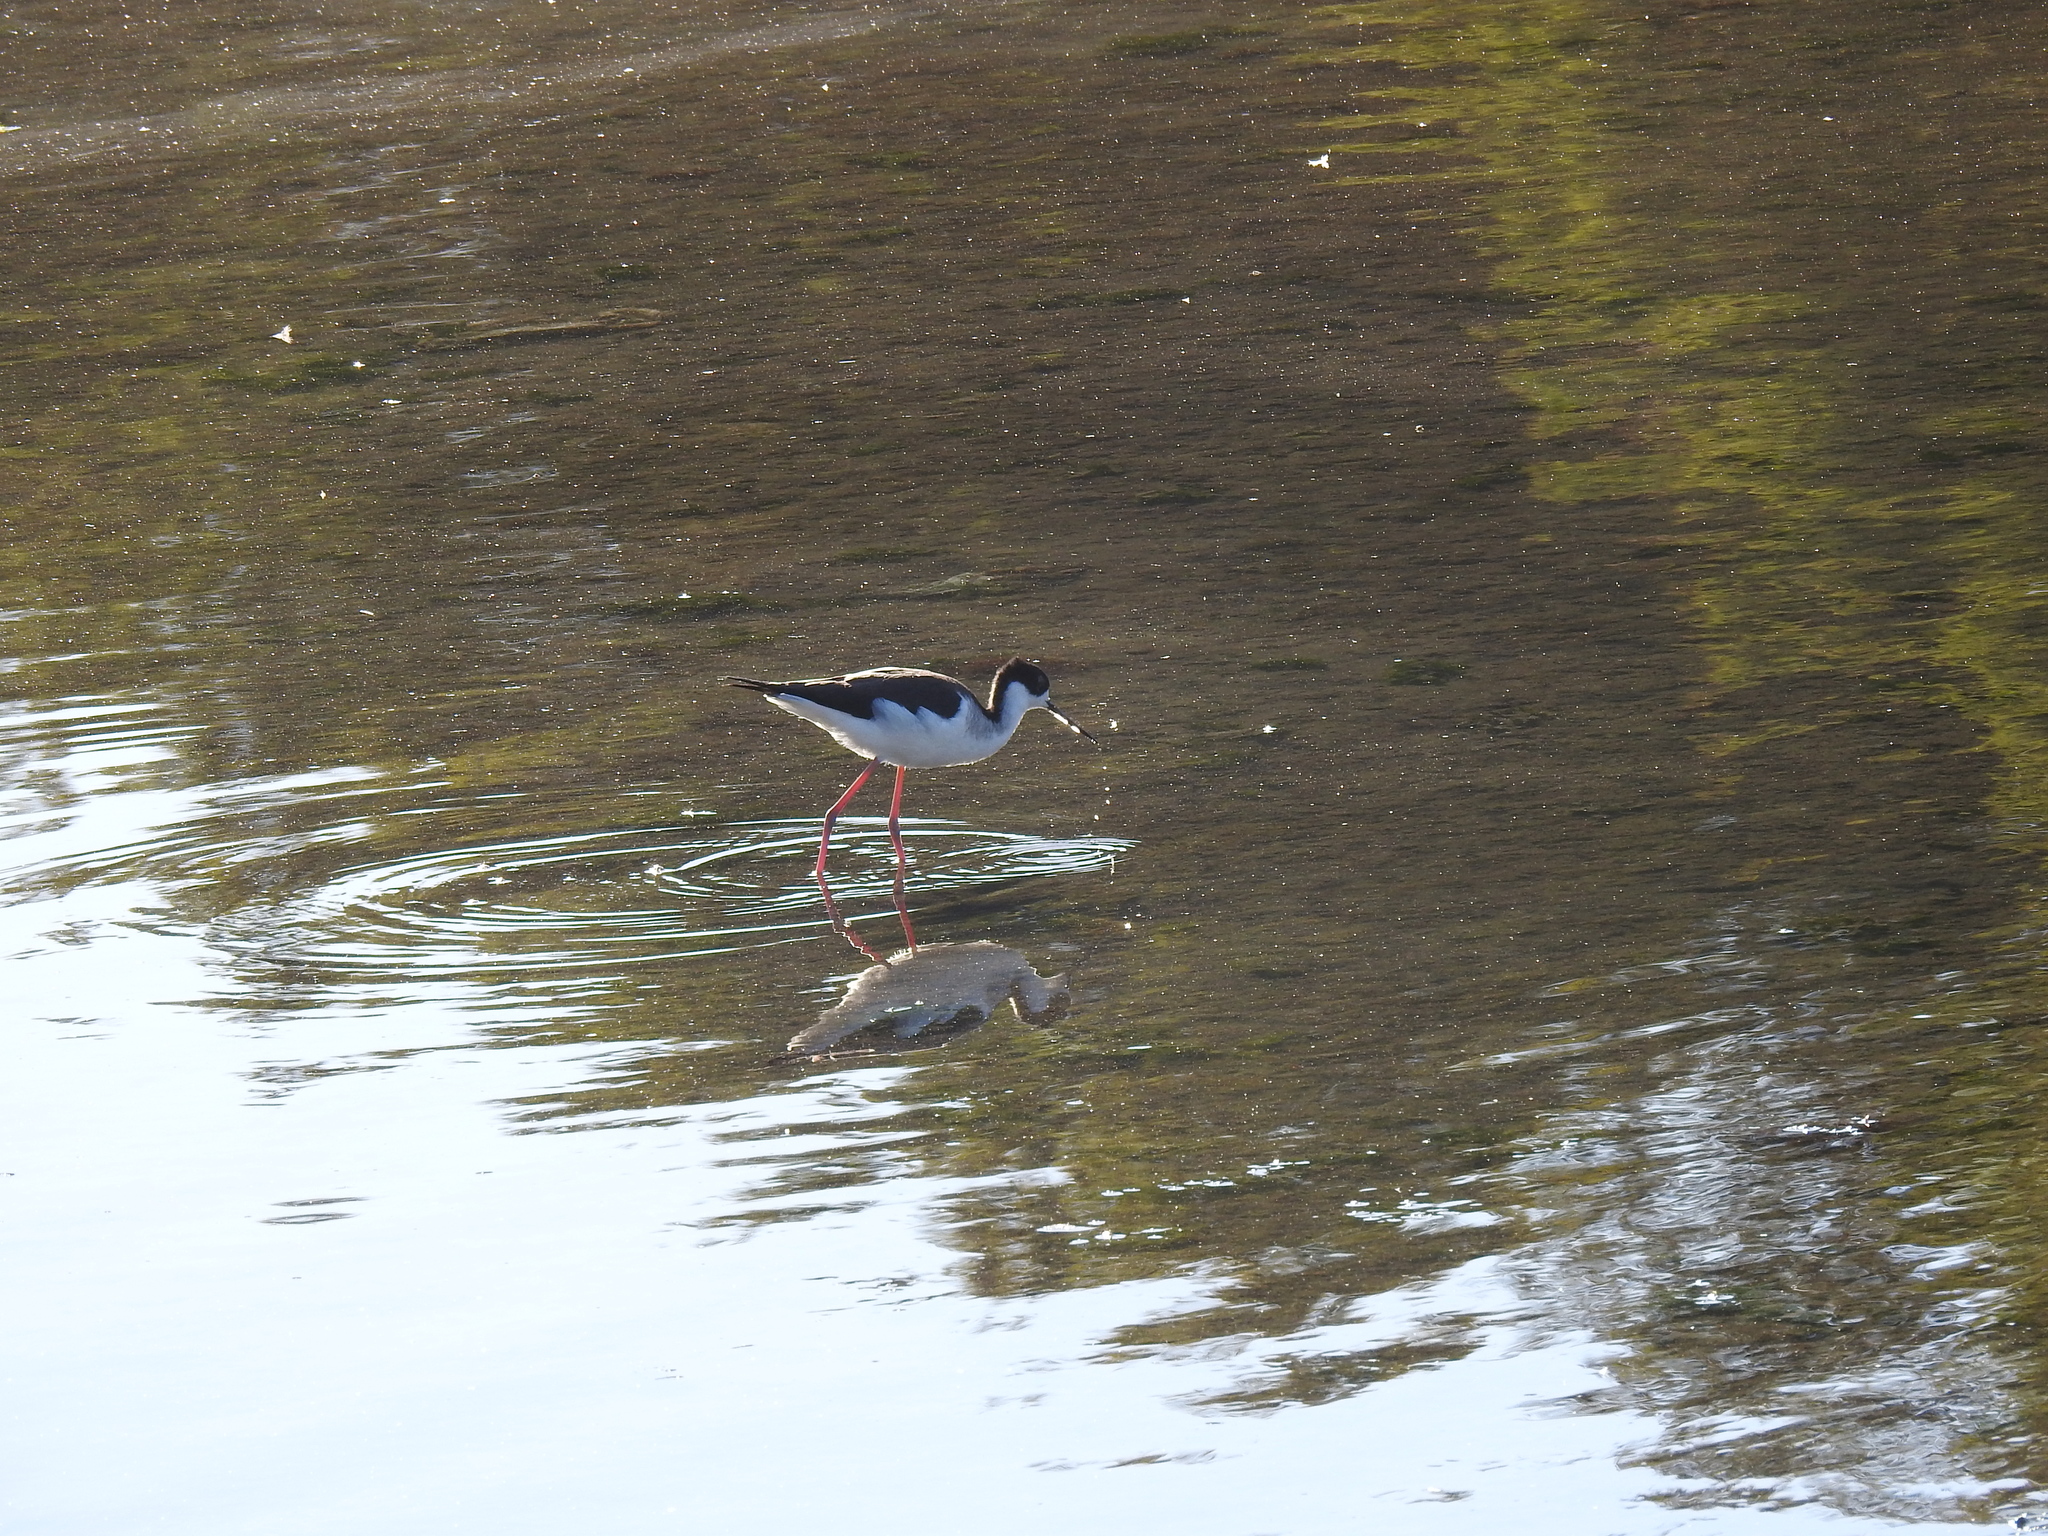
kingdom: Animalia
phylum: Chordata
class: Aves
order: Charadriiformes
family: Recurvirostridae
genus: Himantopus
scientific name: Himantopus mexicanus
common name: Black-necked stilt
